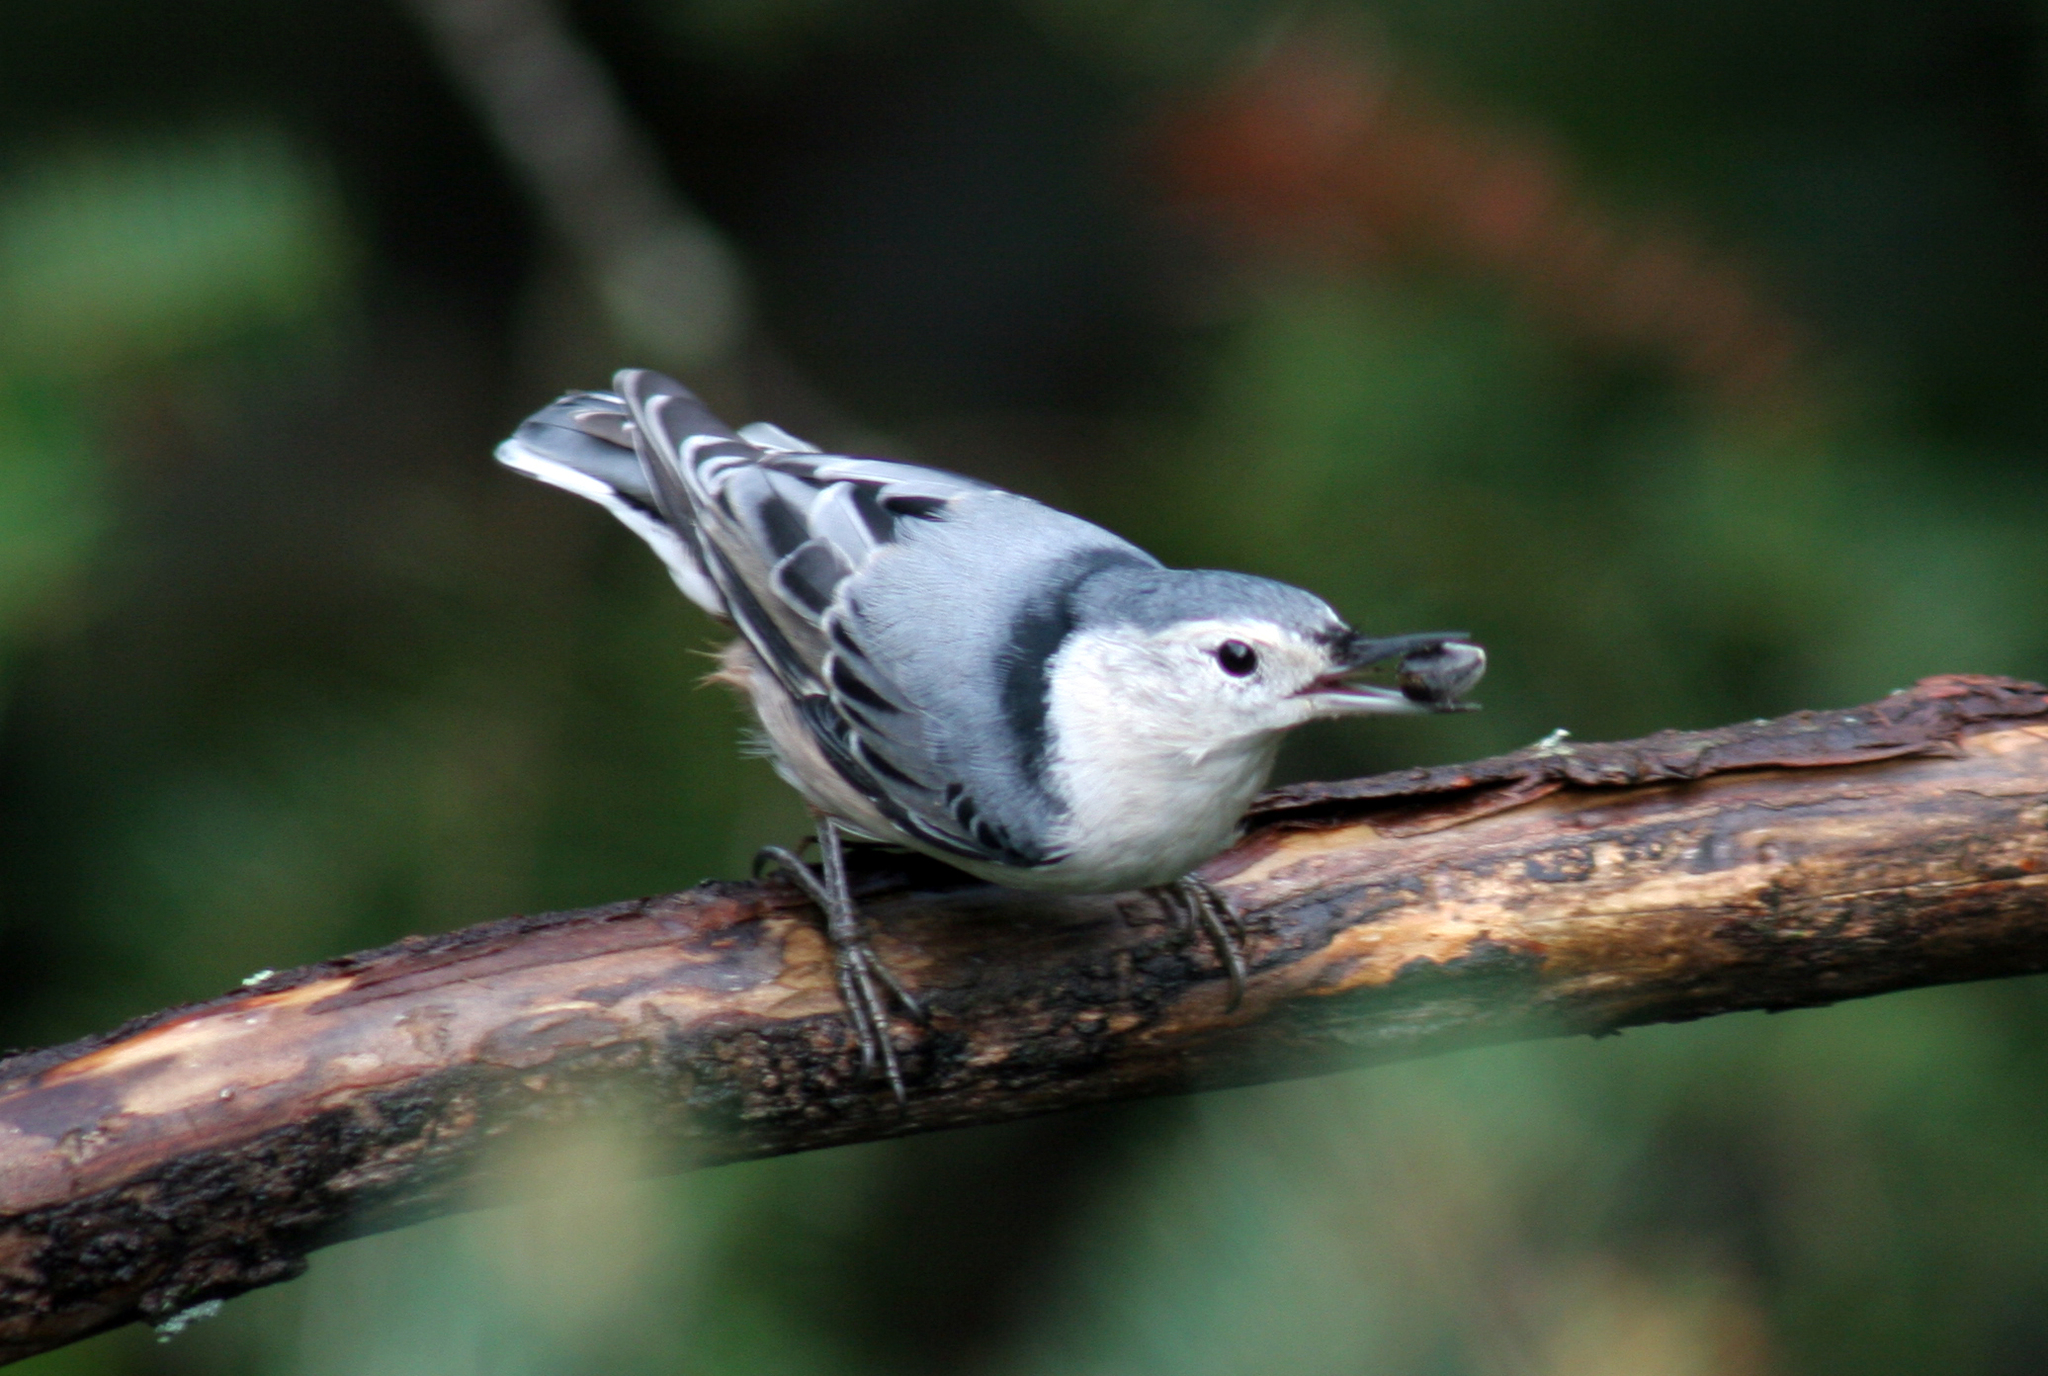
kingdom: Animalia
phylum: Chordata
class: Aves
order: Passeriformes
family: Sittidae
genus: Sitta
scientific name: Sitta carolinensis
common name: White-breasted nuthatch
